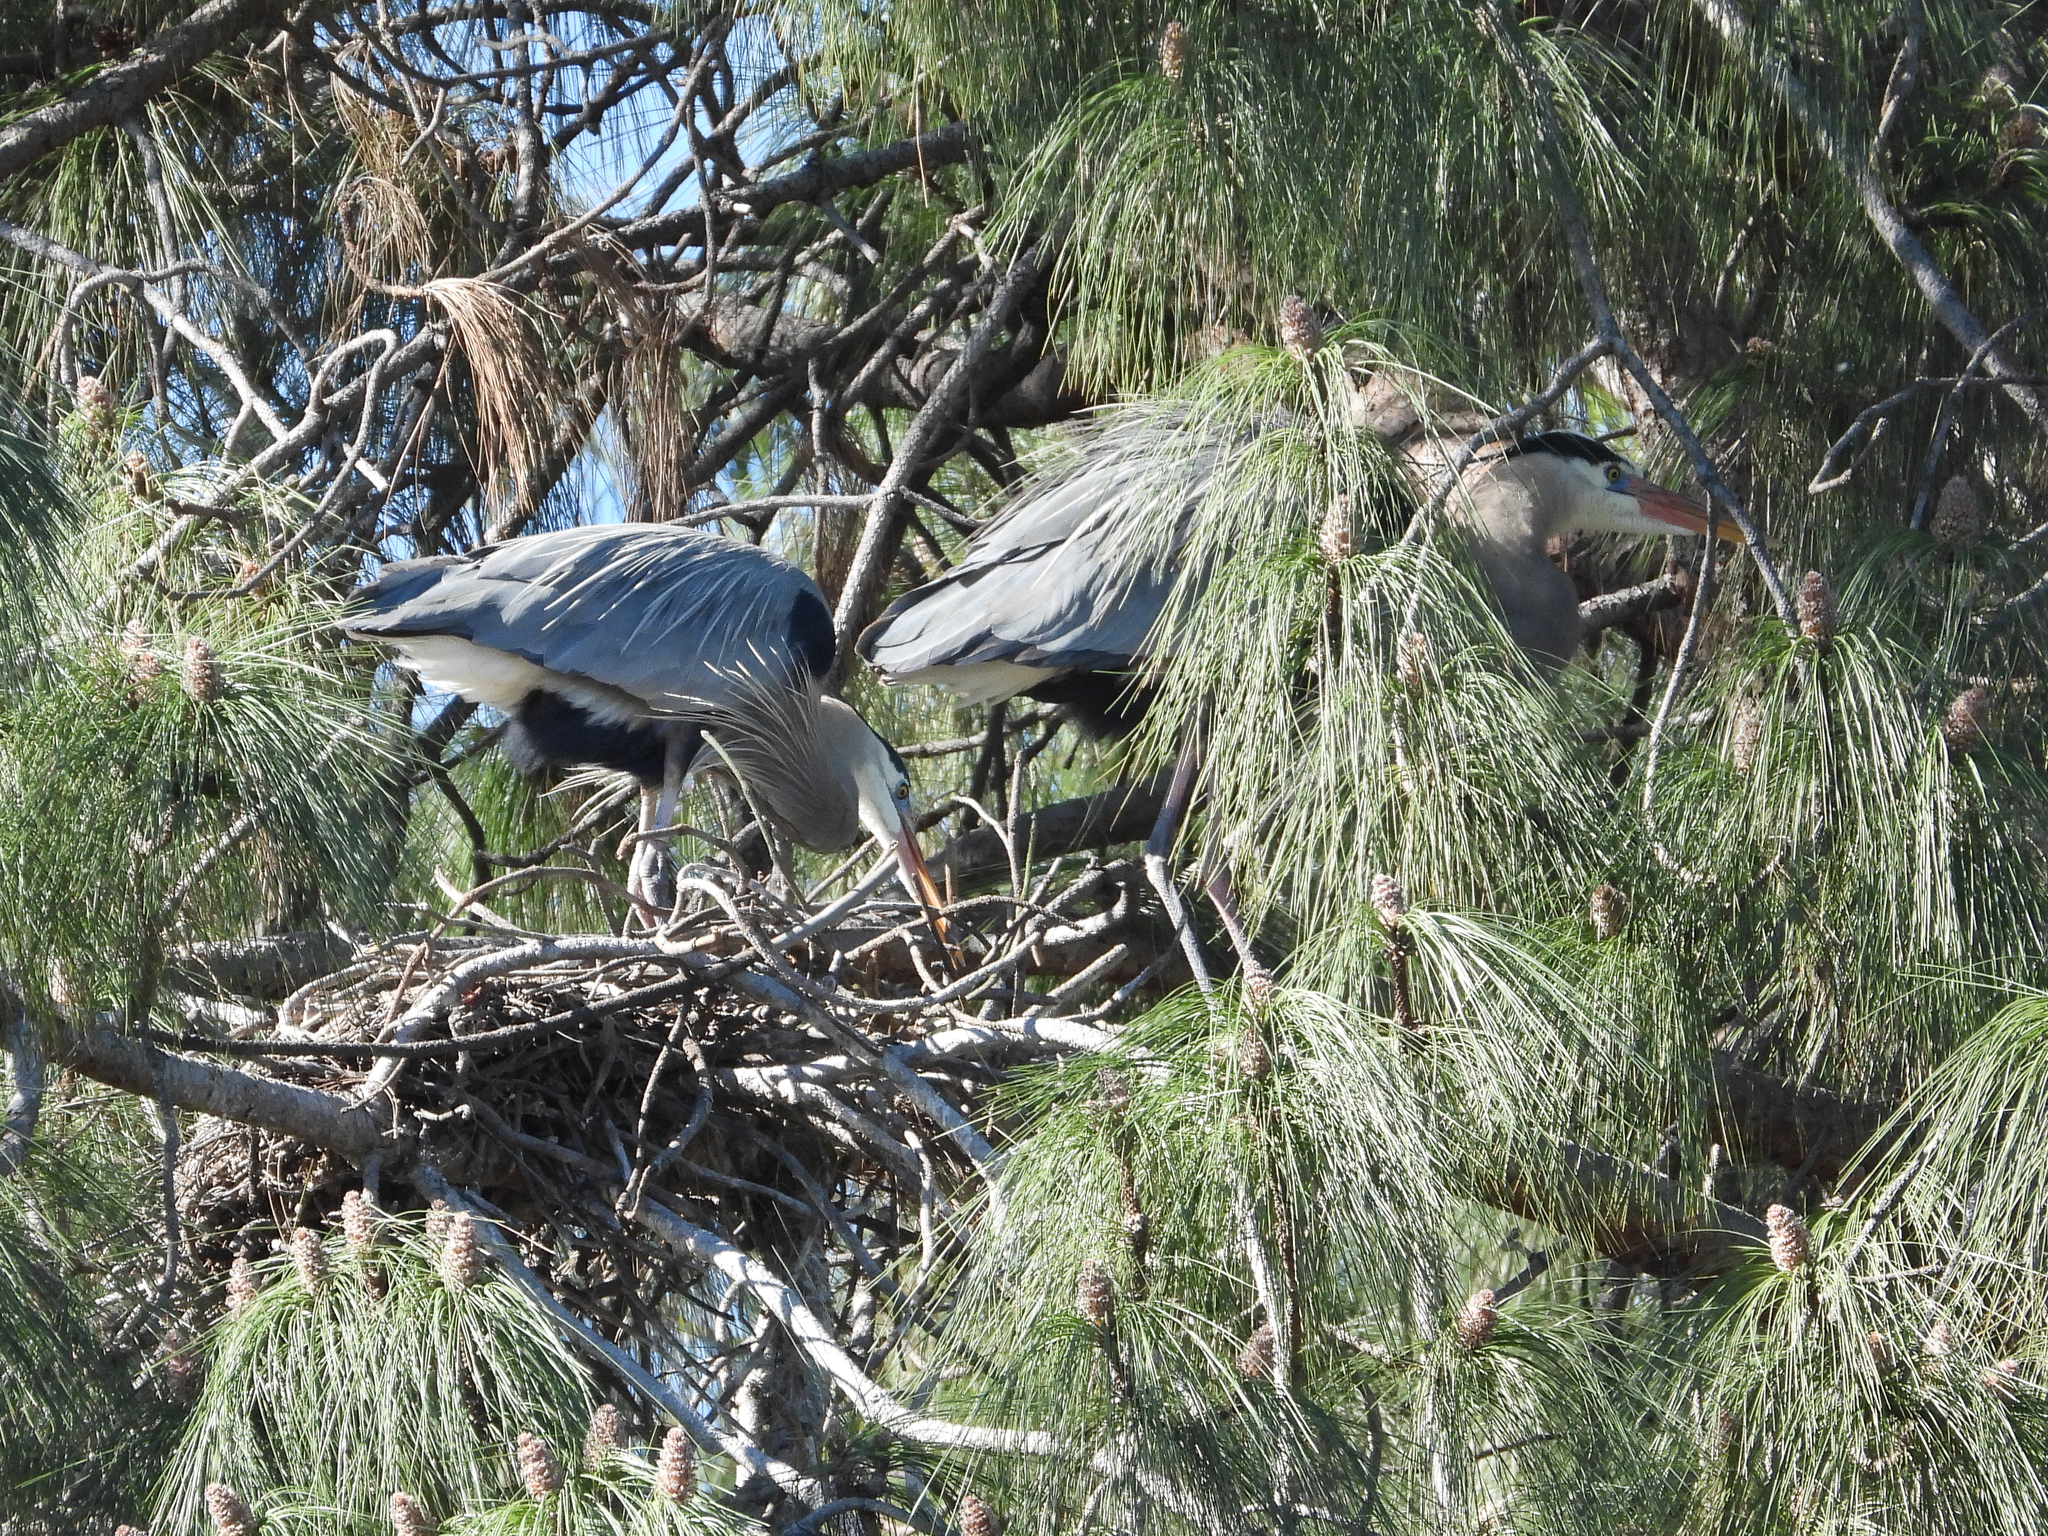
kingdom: Animalia
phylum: Chordata
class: Aves
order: Pelecaniformes
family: Ardeidae
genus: Ardea
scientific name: Ardea herodias
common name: Great blue heron
